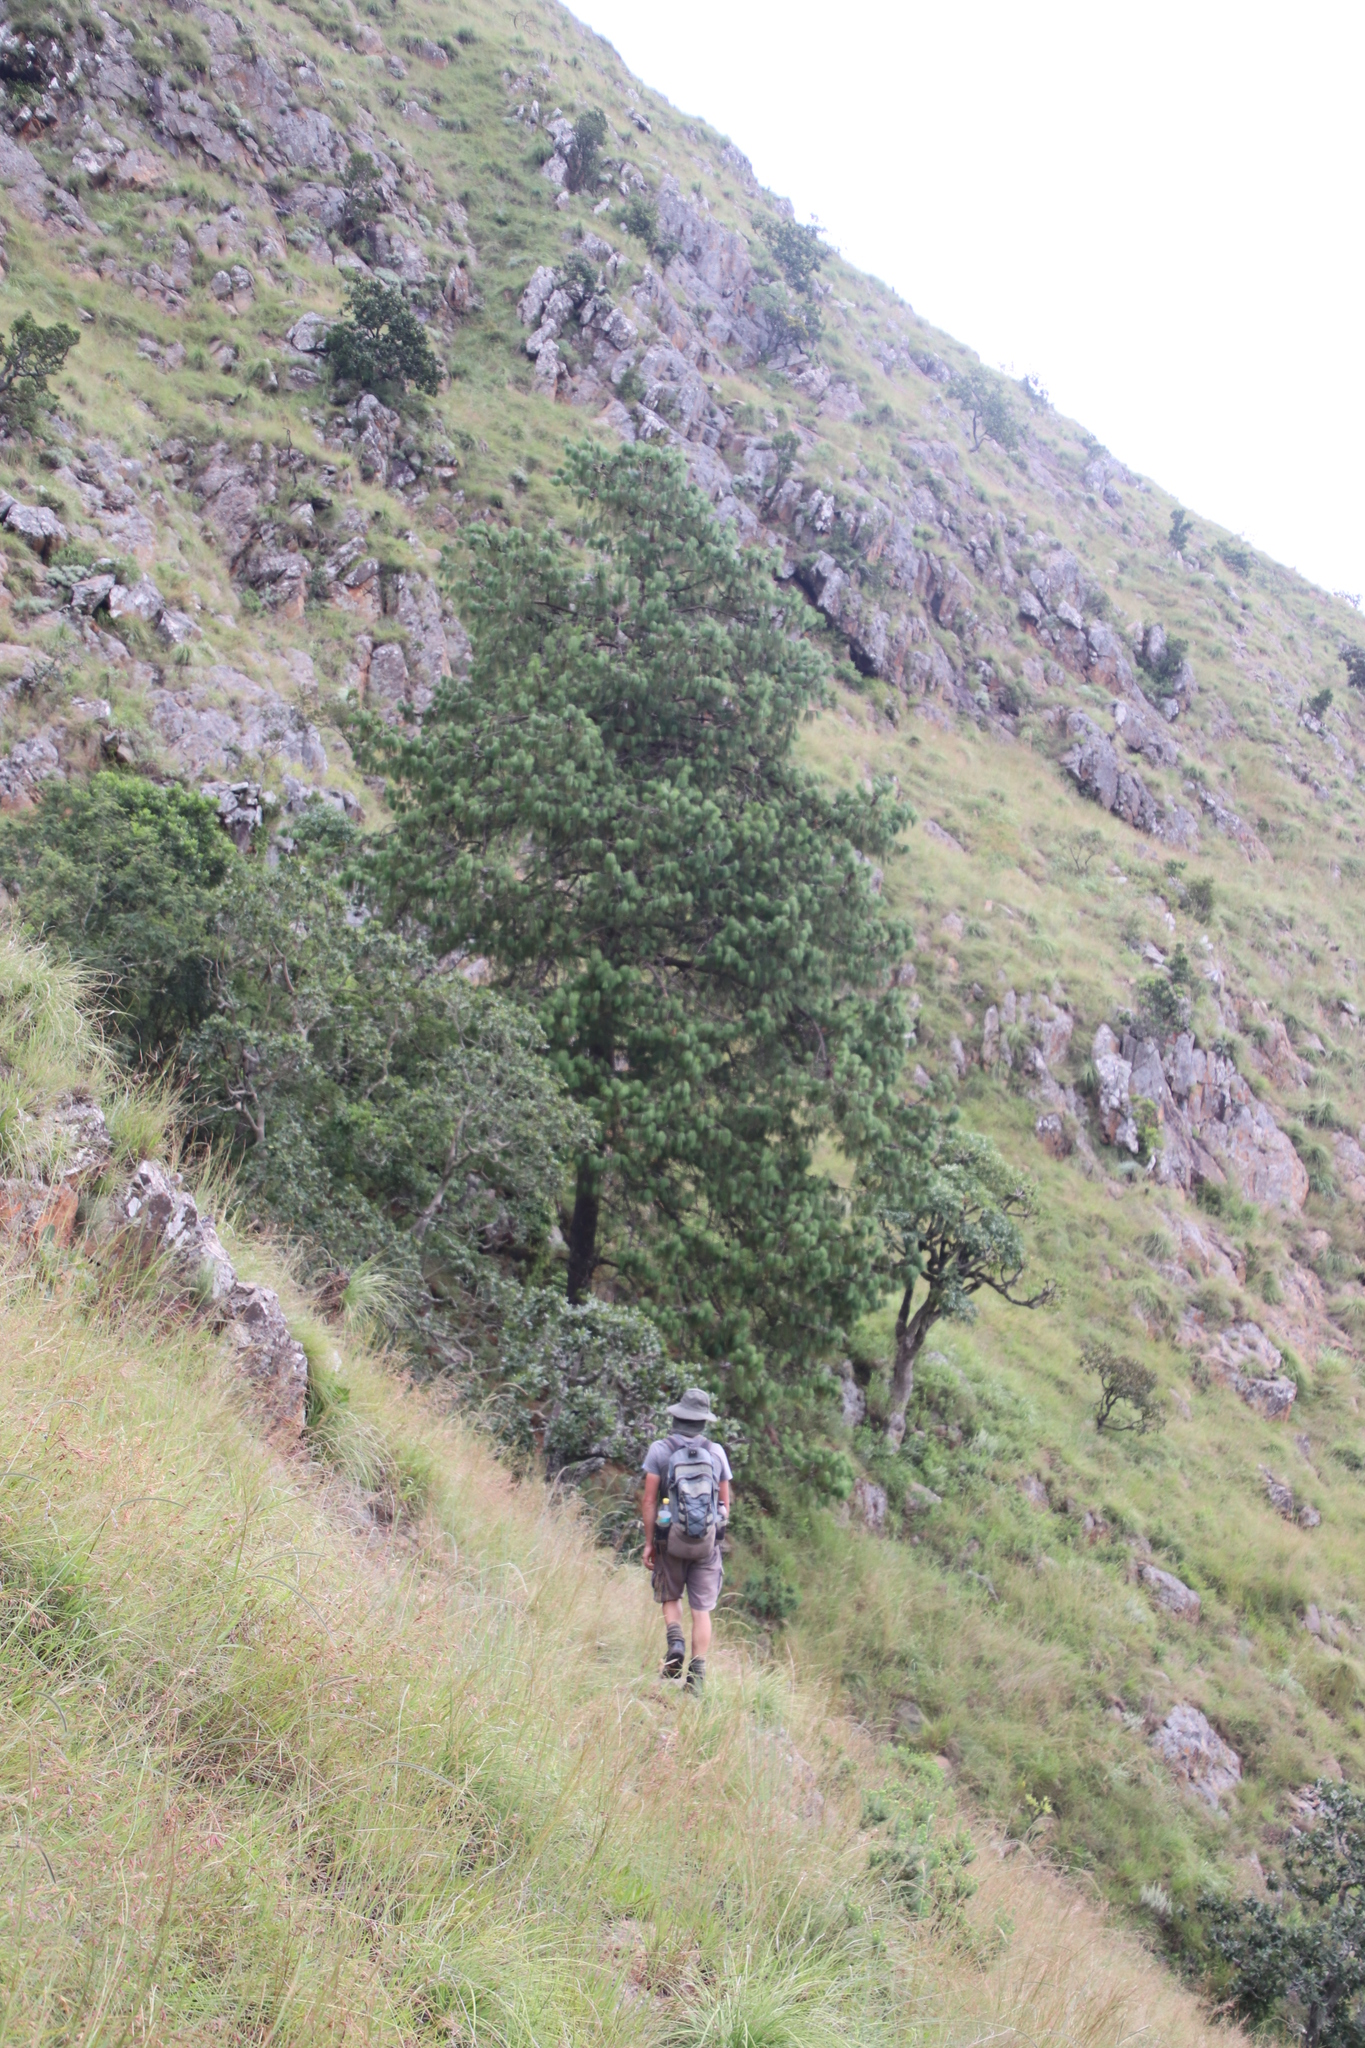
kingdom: Plantae
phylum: Tracheophyta
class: Pinopsida
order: Pinales
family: Pinaceae
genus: Pinus
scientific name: Pinus patula
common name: Mexican weeping pine
